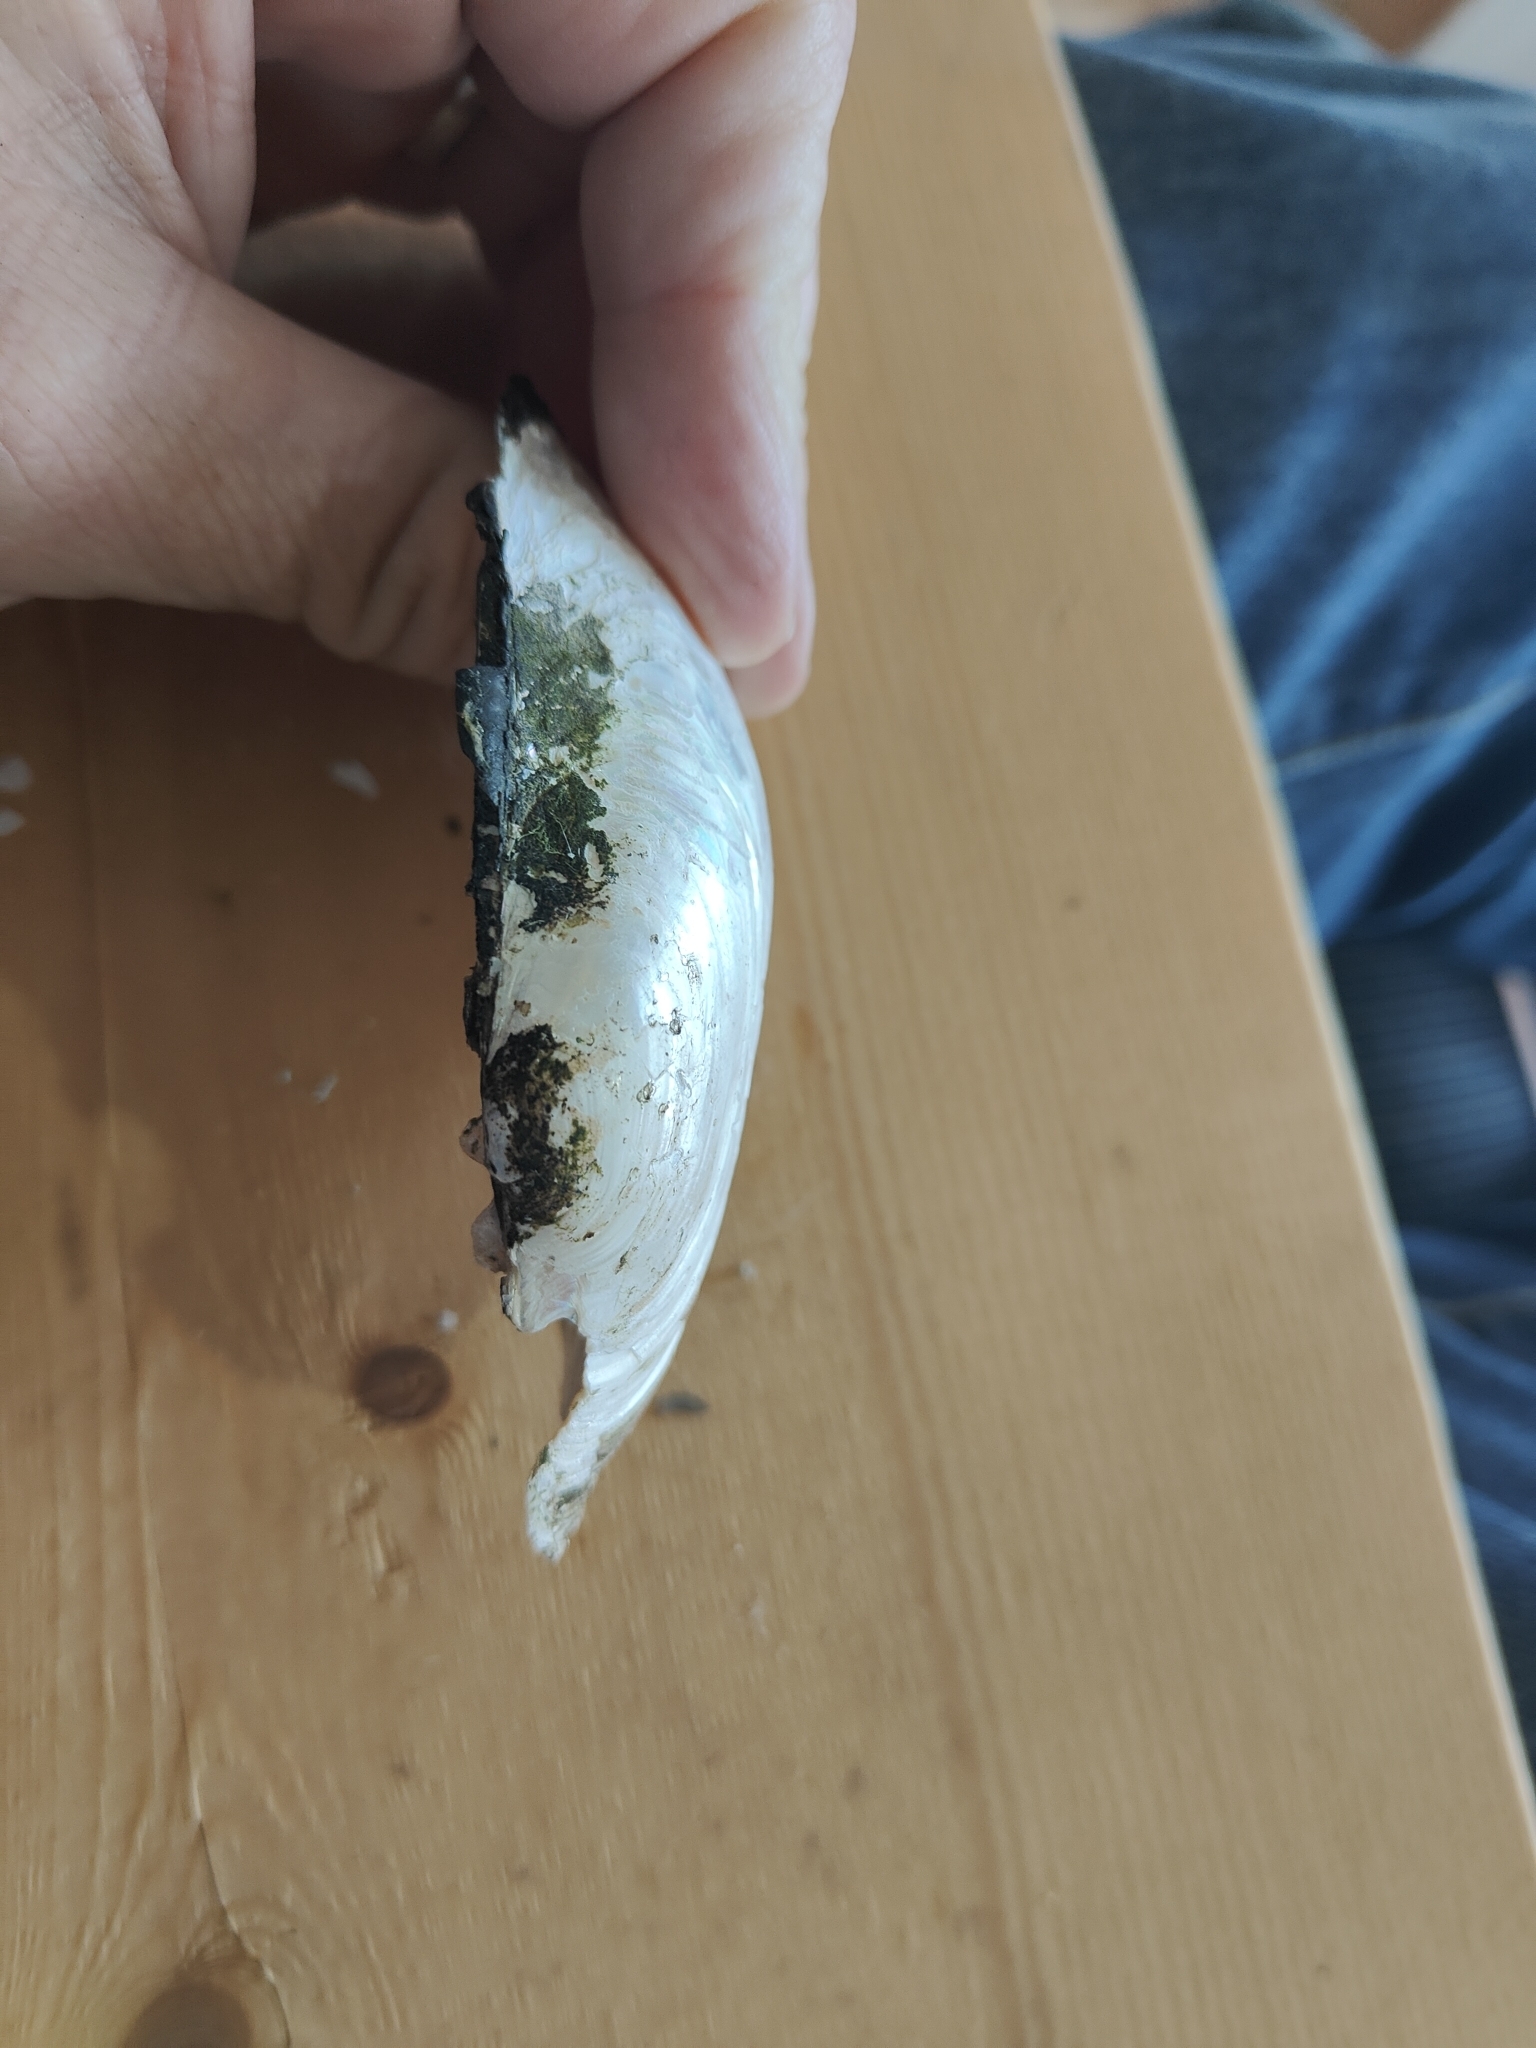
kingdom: Animalia
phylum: Mollusca
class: Bivalvia
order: Unionida
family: Unionidae
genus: Lampsilis
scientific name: Lampsilis siliquoidea
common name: Fatmucket
